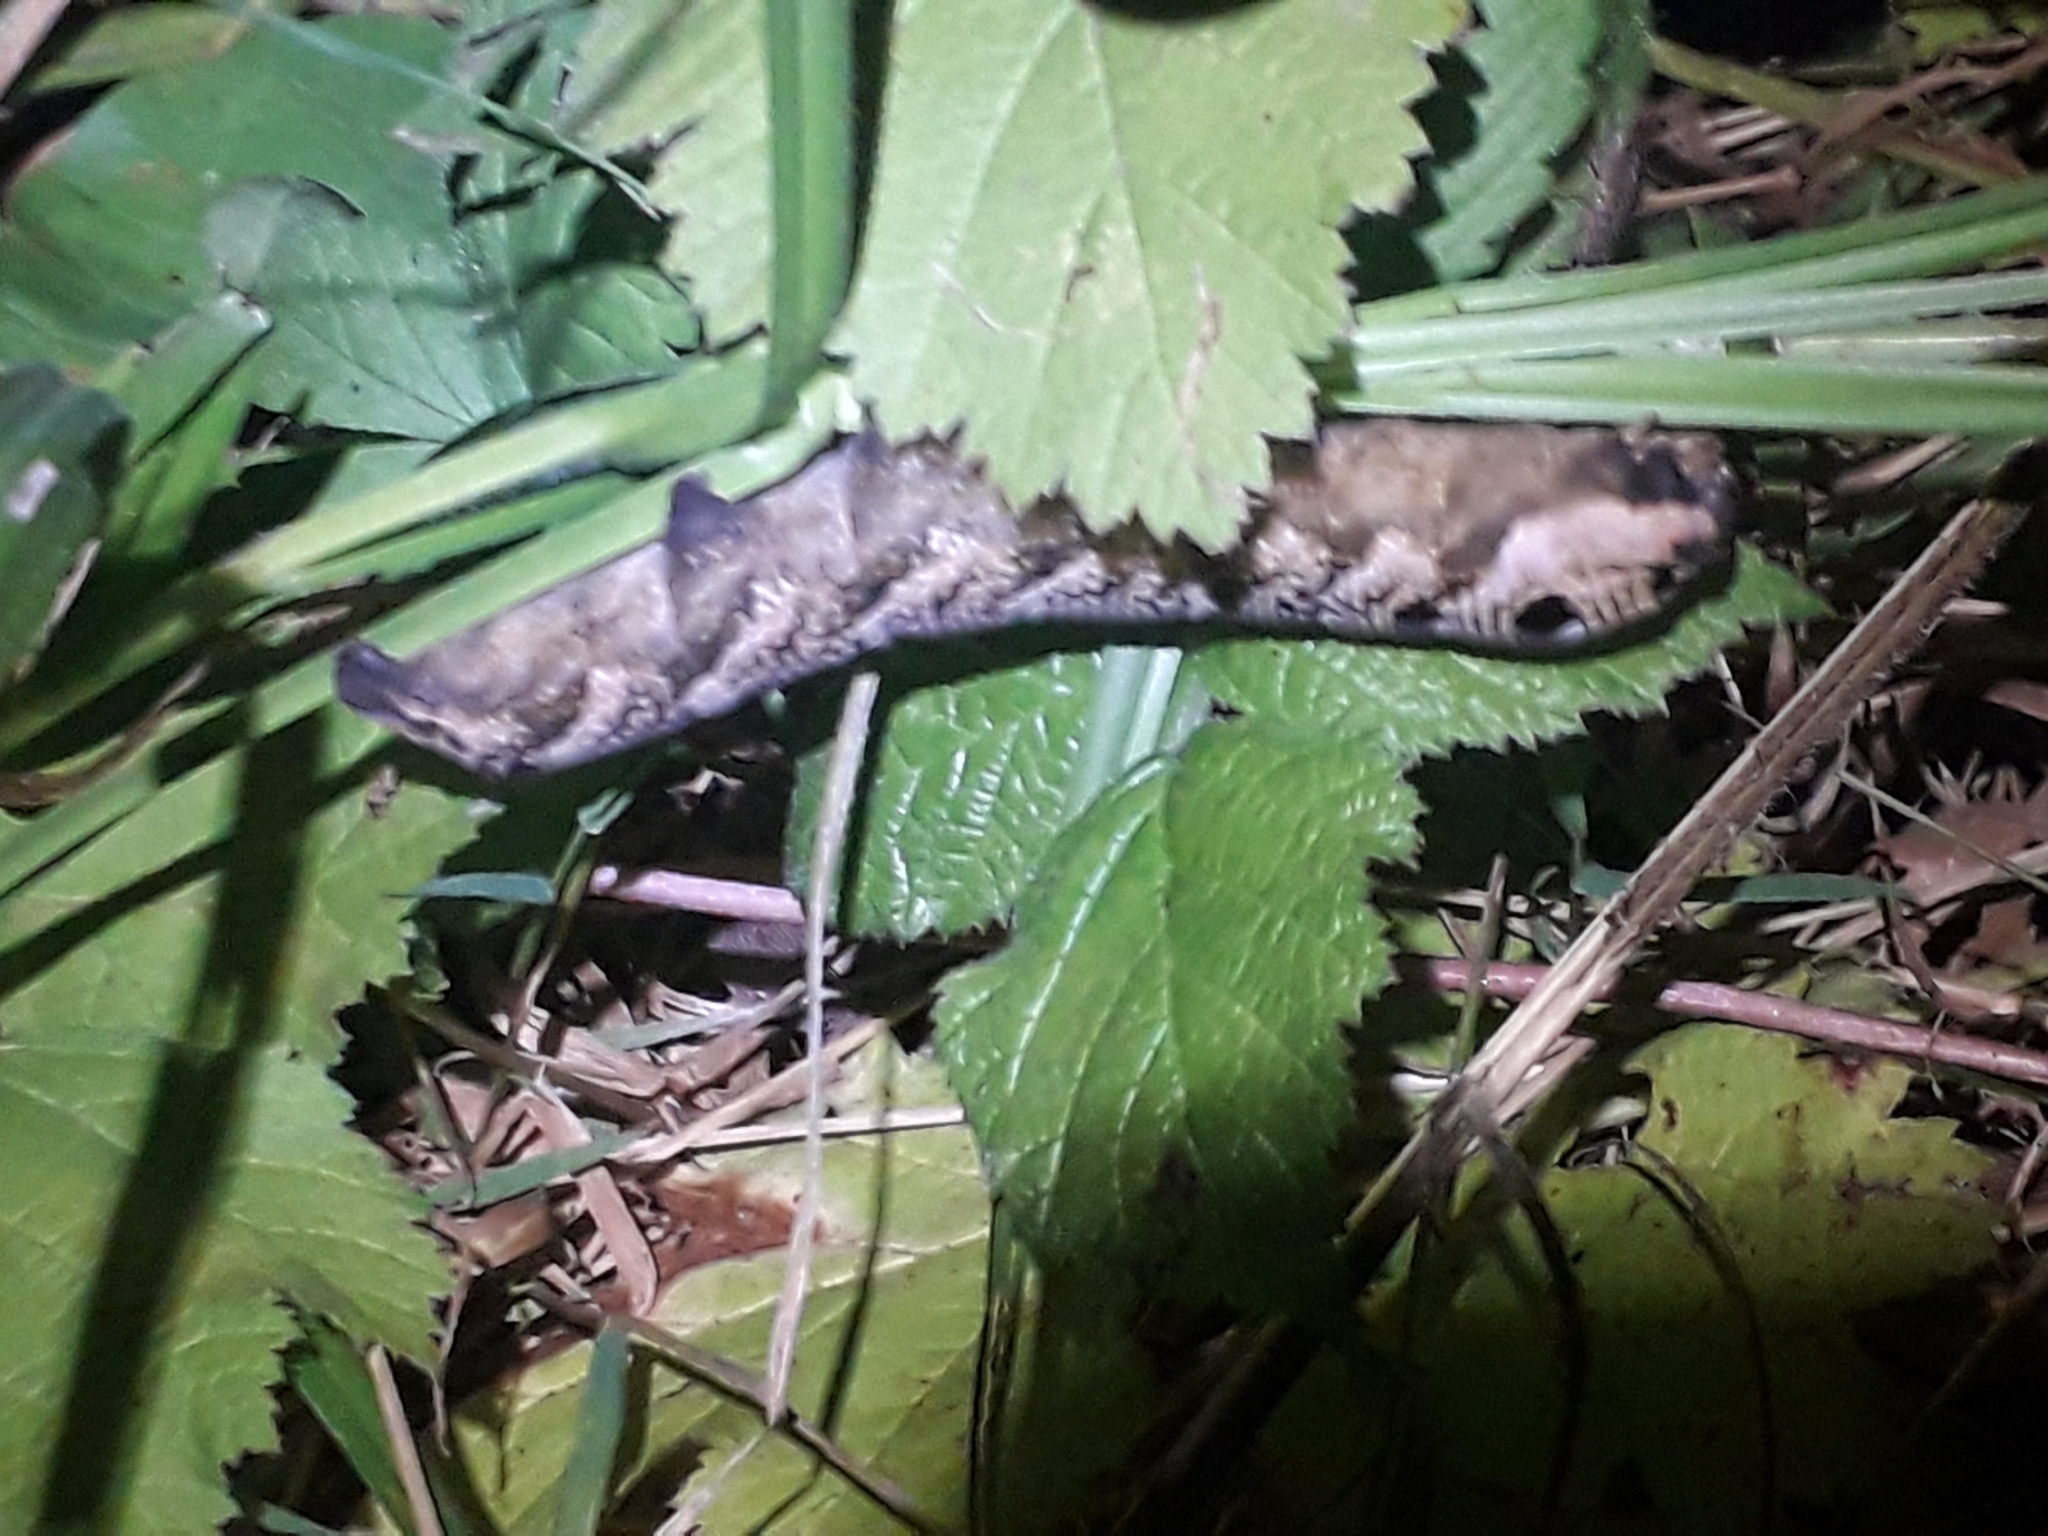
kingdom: Animalia
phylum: Arthropoda
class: Insecta
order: Lepidoptera
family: Sphingidae
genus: Deilephila
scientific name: Deilephila elpenor
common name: Elephant hawk-moth
